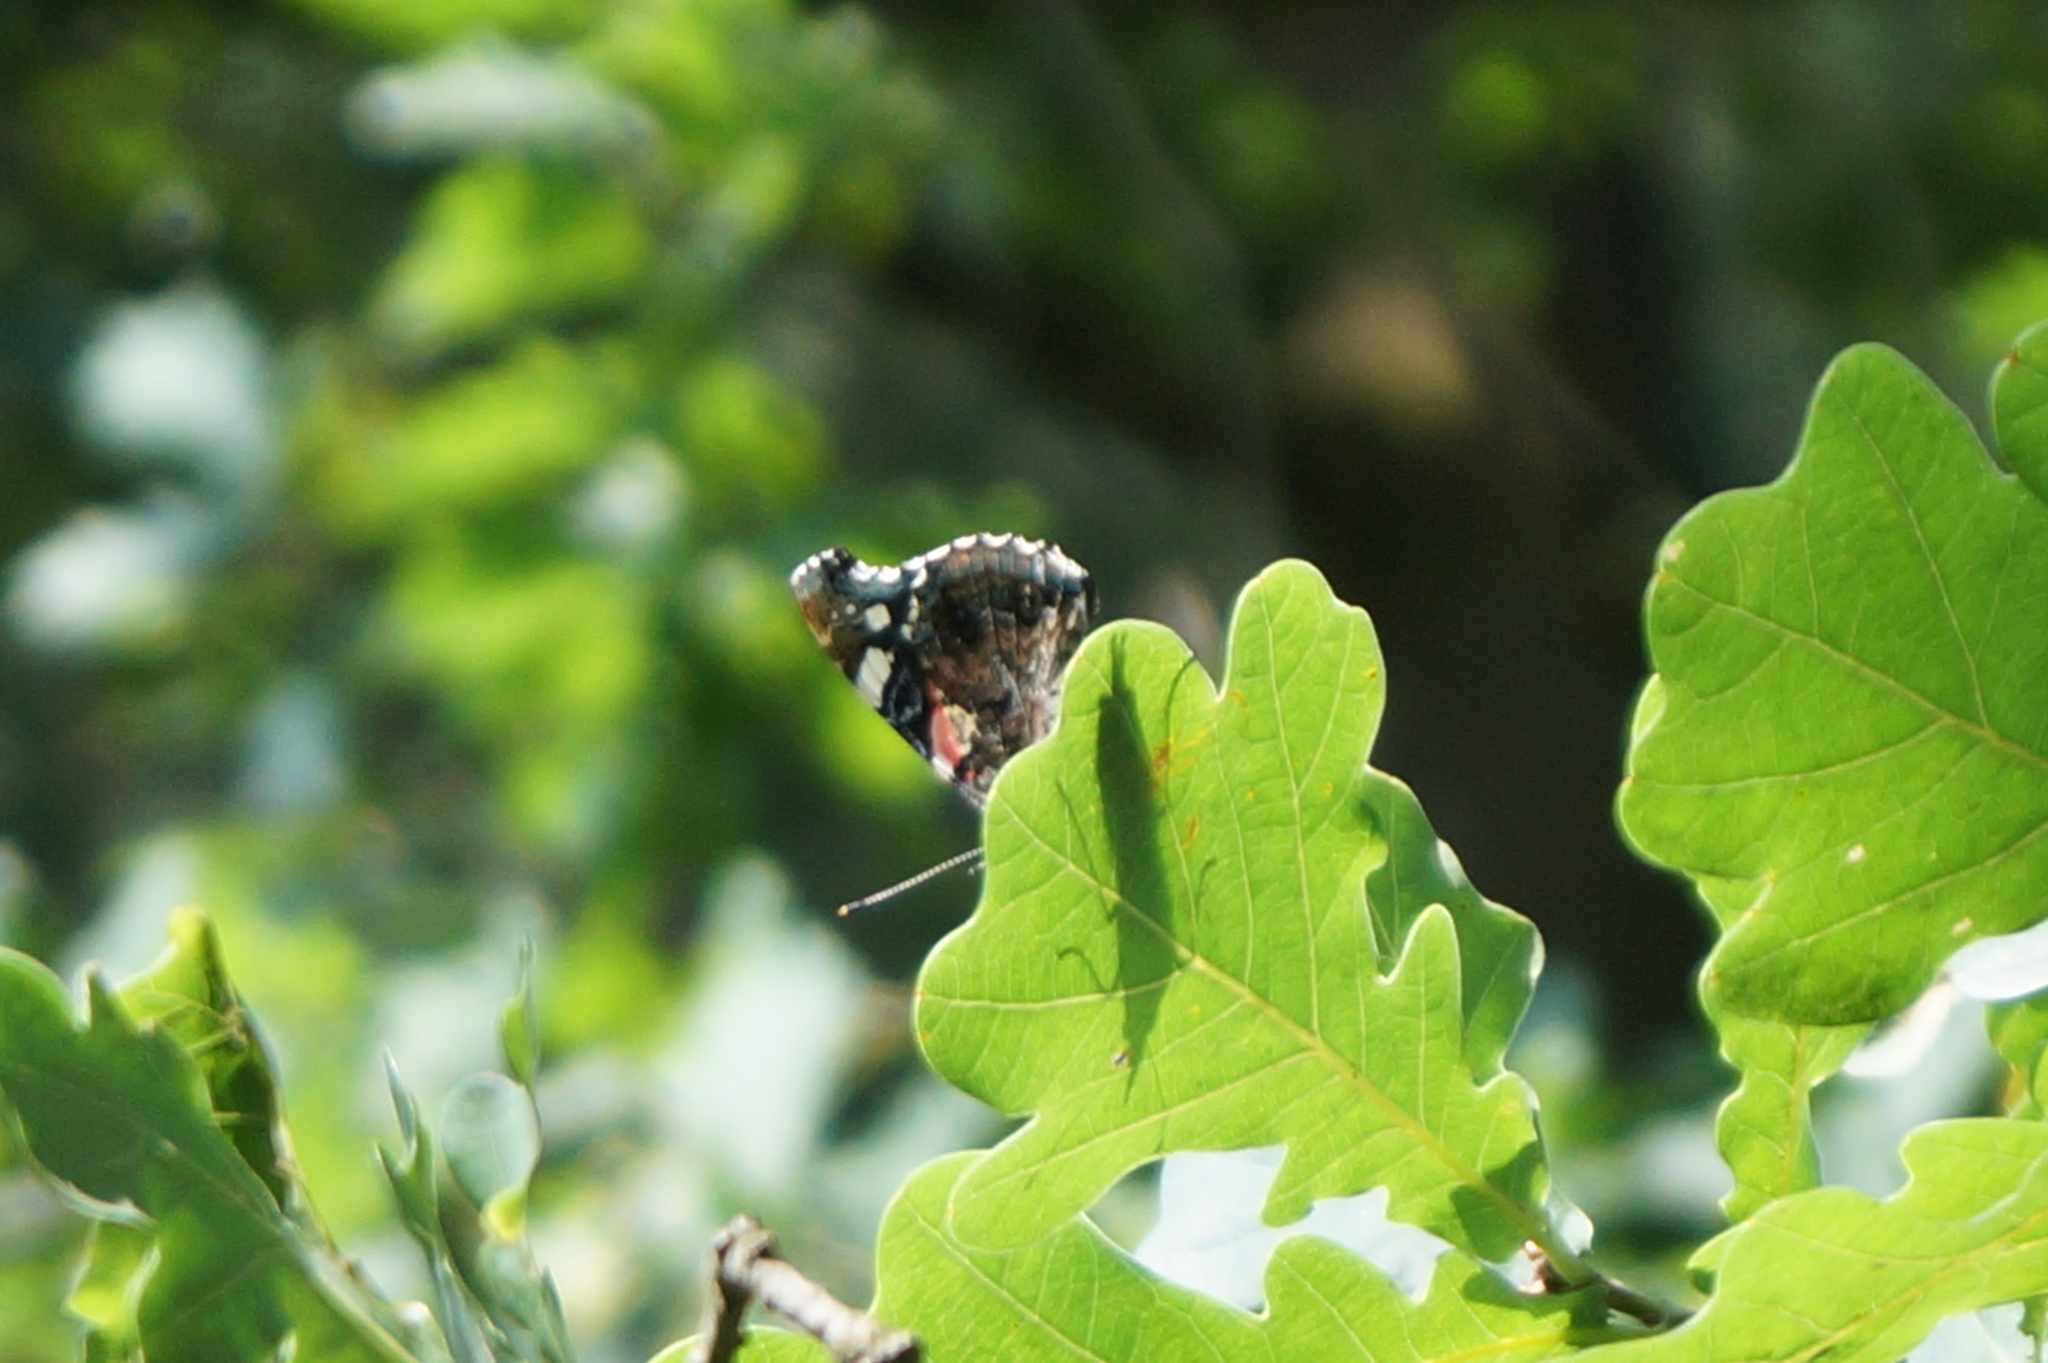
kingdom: Animalia
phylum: Arthropoda
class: Insecta
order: Lepidoptera
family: Nymphalidae
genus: Vanessa
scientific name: Vanessa atalanta
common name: Red admiral
